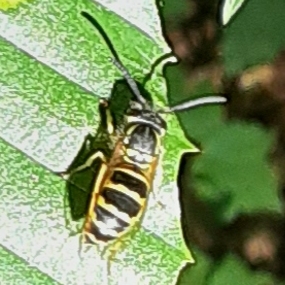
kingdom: Animalia
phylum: Arthropoda
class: Insecta
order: Hymenoptera
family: Vespidae
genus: Vespula
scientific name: Vespula maculifrons
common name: Eastern yellowjacket
